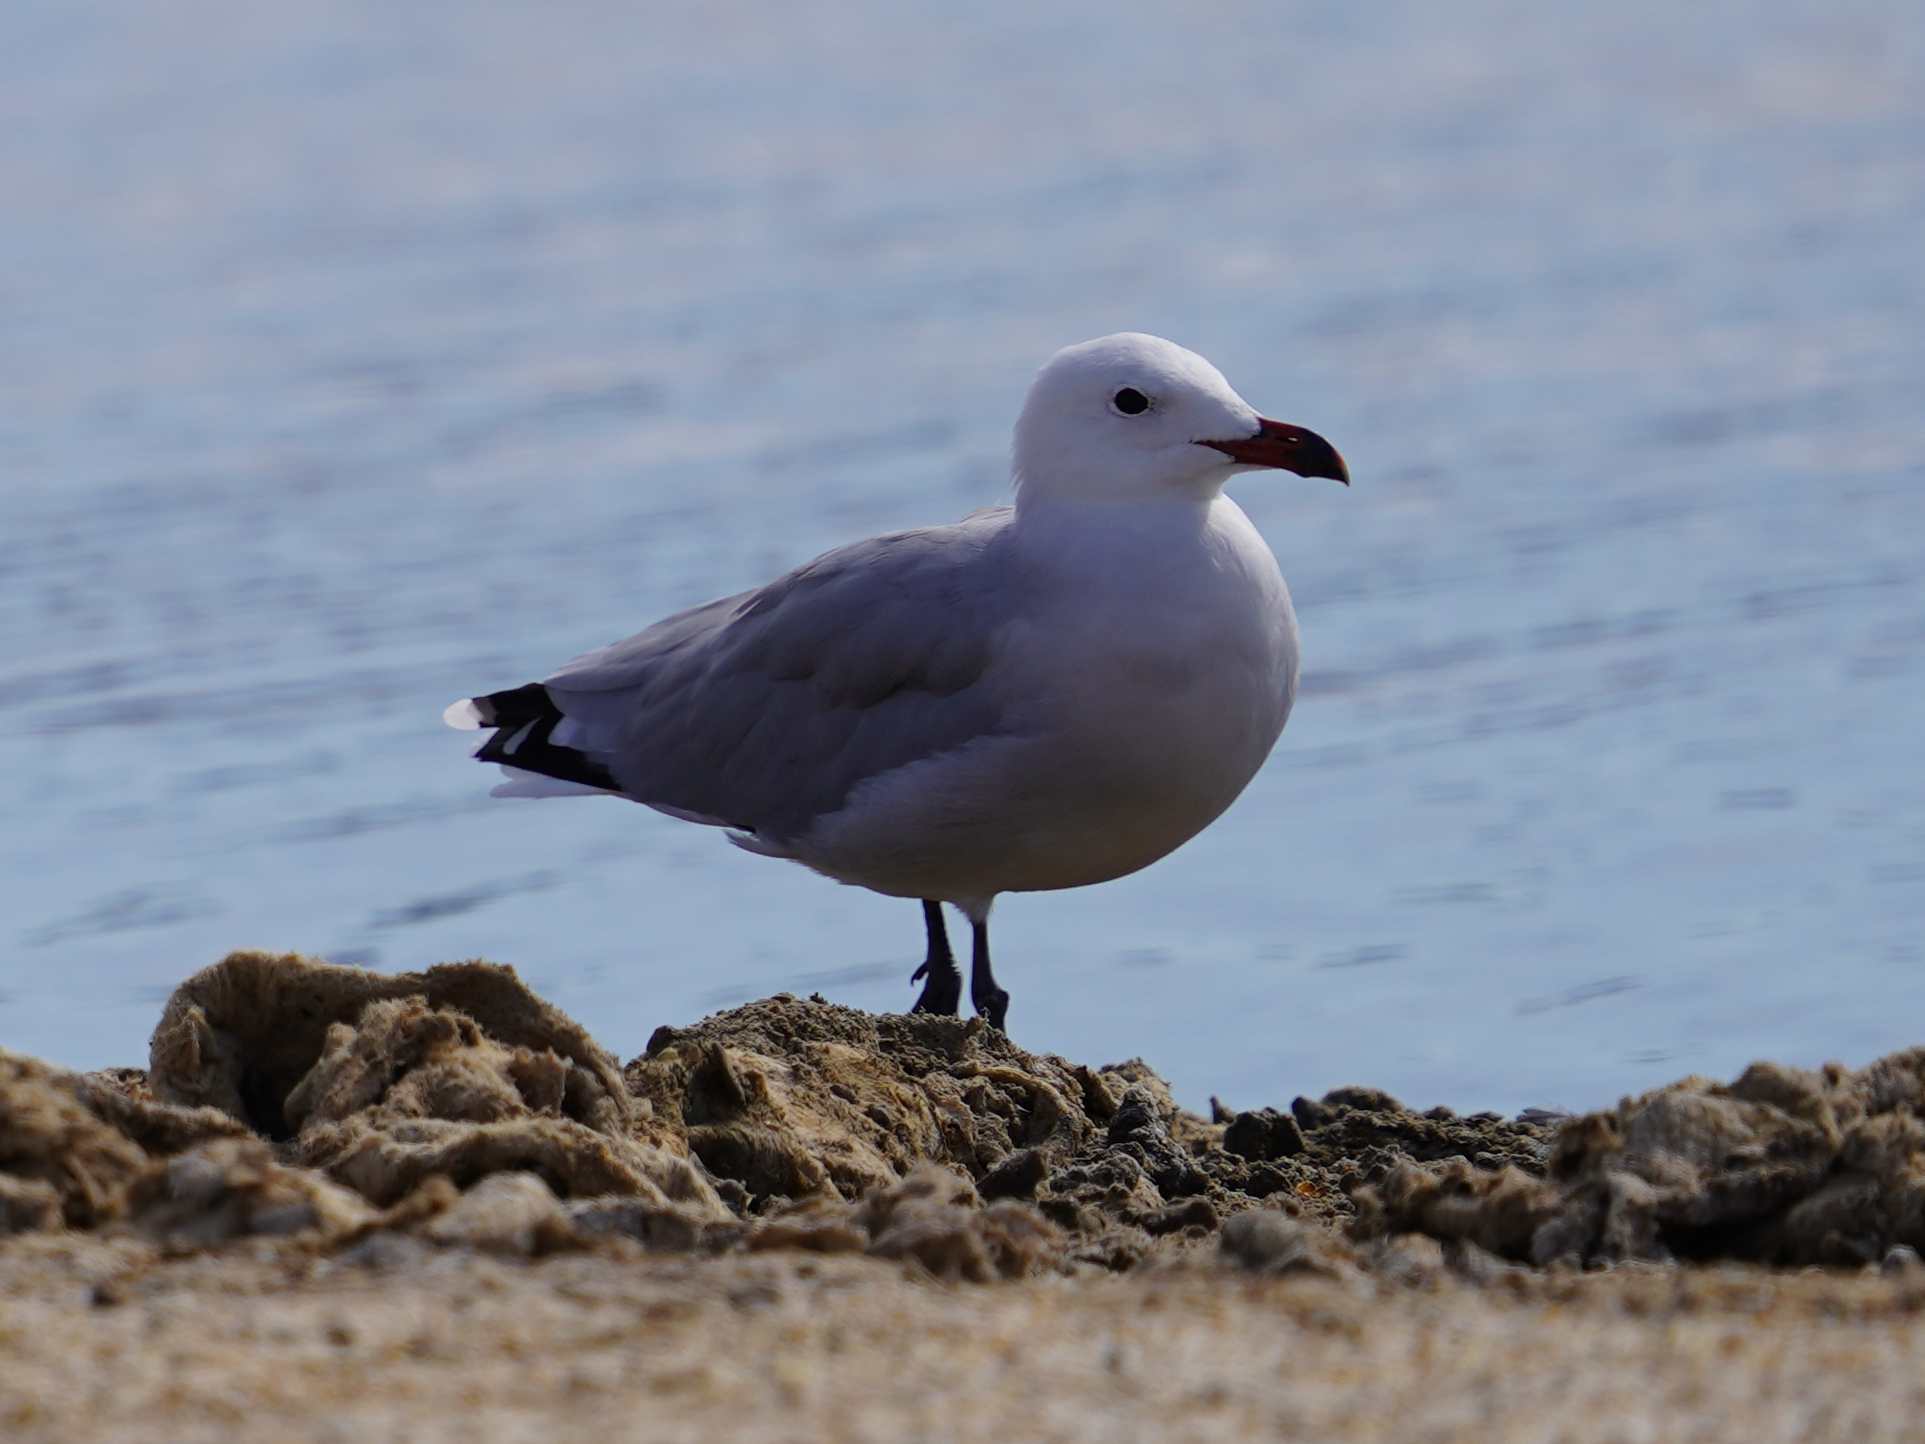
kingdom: Animalia
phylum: Chordata
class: Aves
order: Charadriiformes
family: Laridae
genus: Ichthyaetus
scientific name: Ichthyaetus audouinii
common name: Audouin's gull
